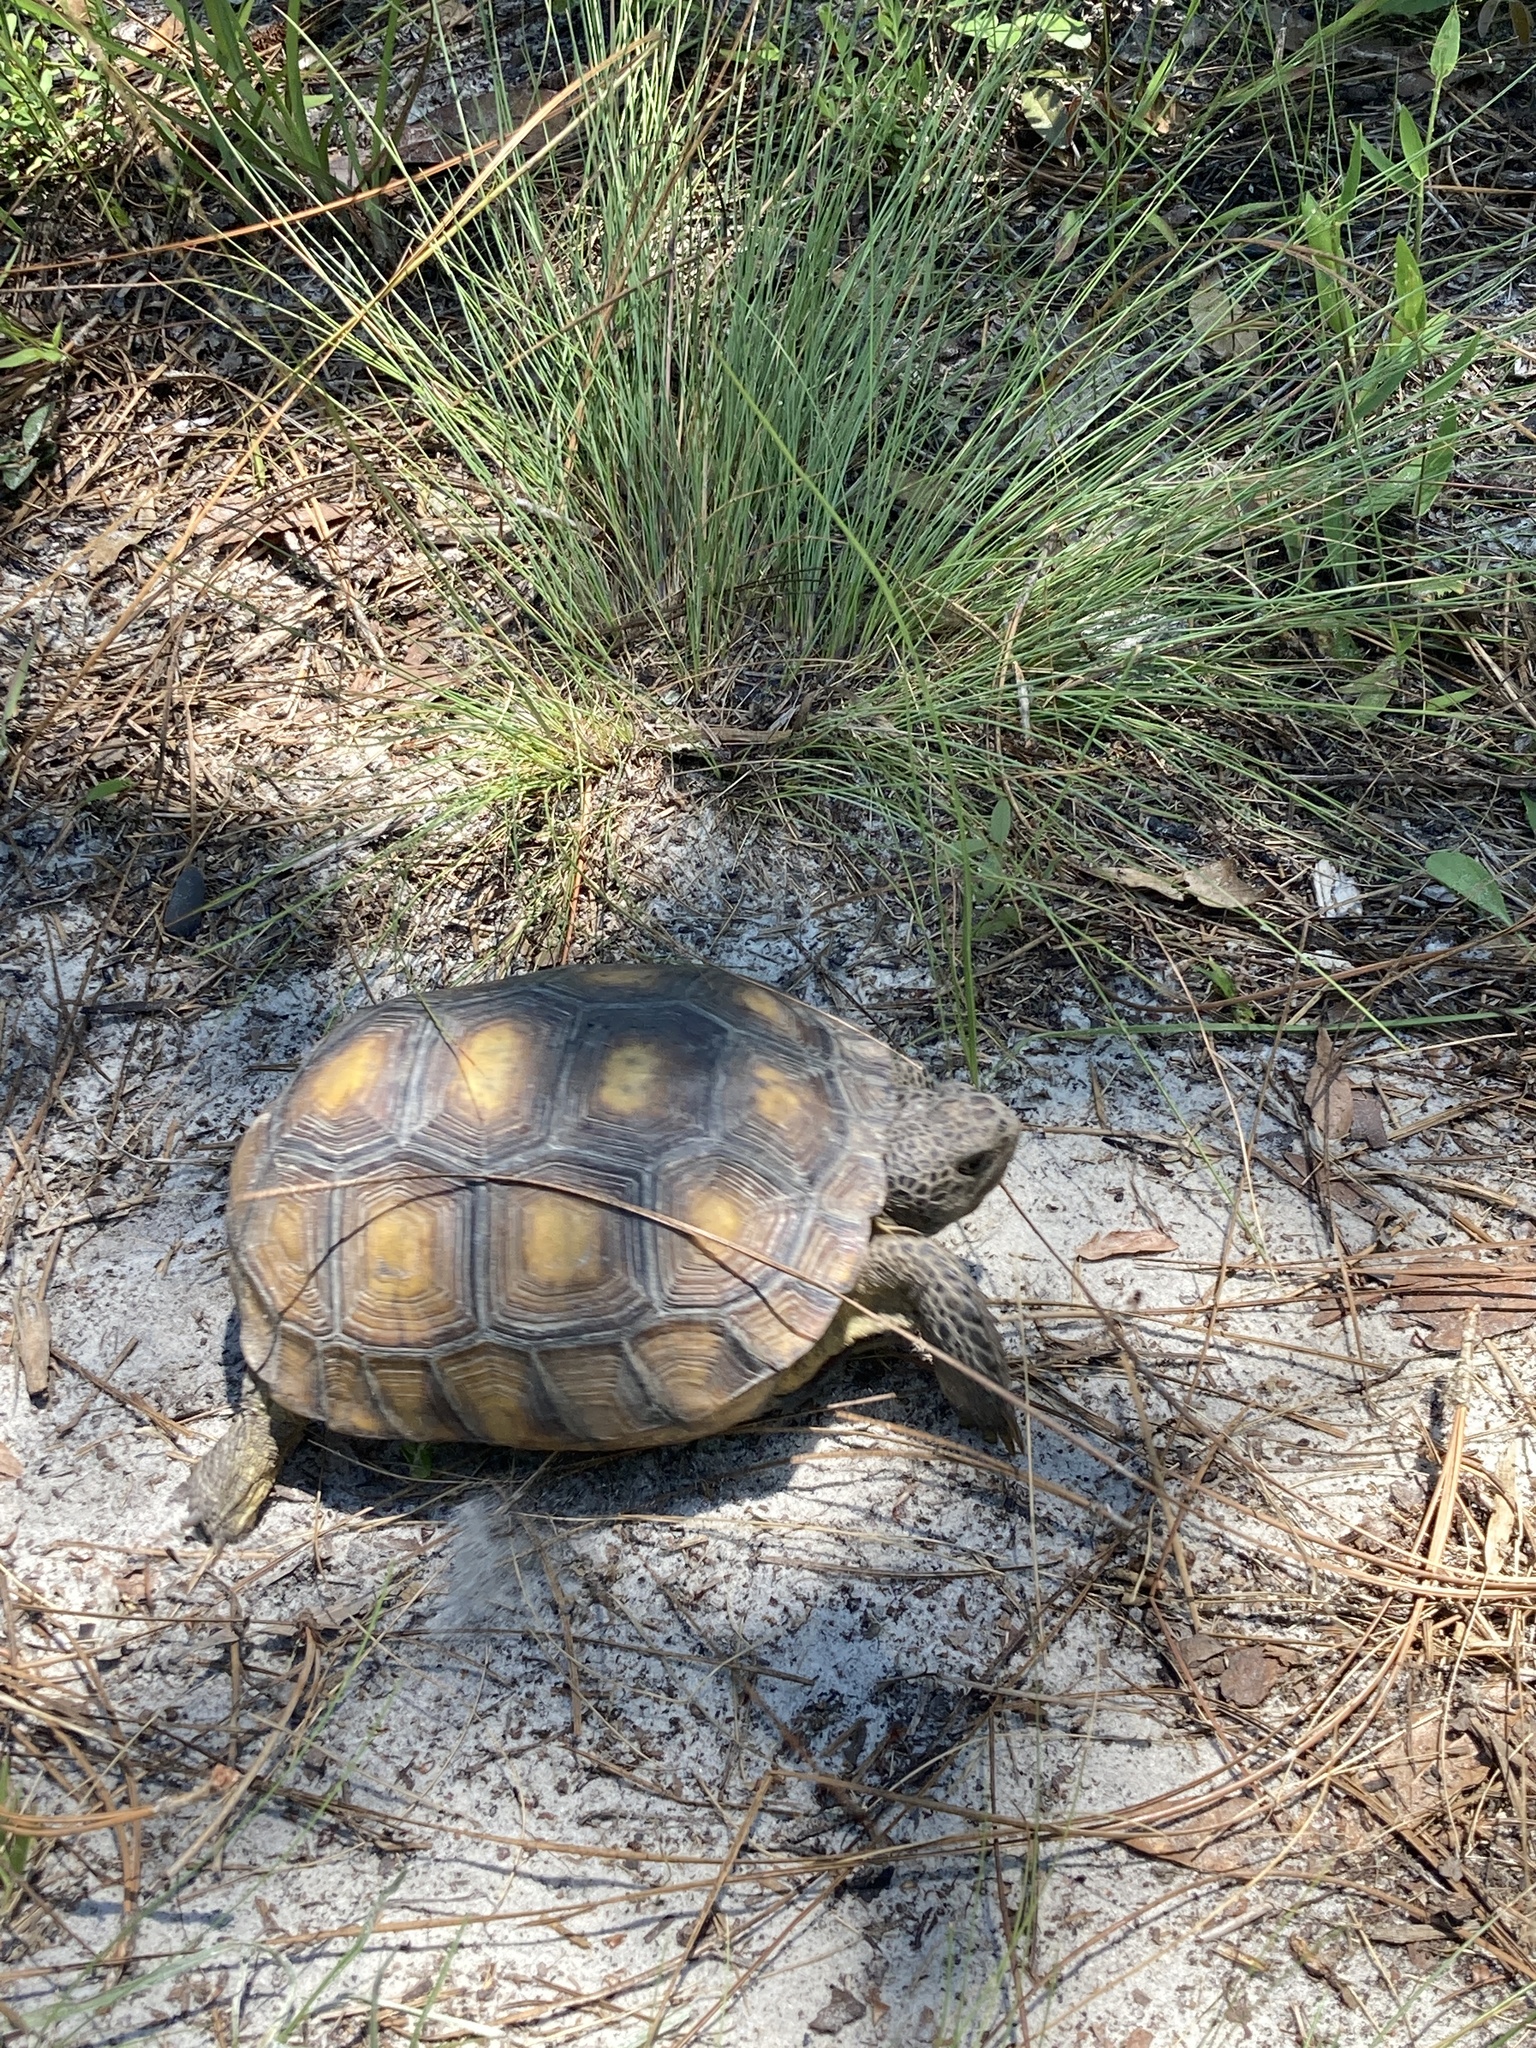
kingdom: Animalia
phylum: Chordata
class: Testudines
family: Testudinidae
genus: Gopherus
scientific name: Gopherus polyphemus
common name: Florida gopher tortoise
